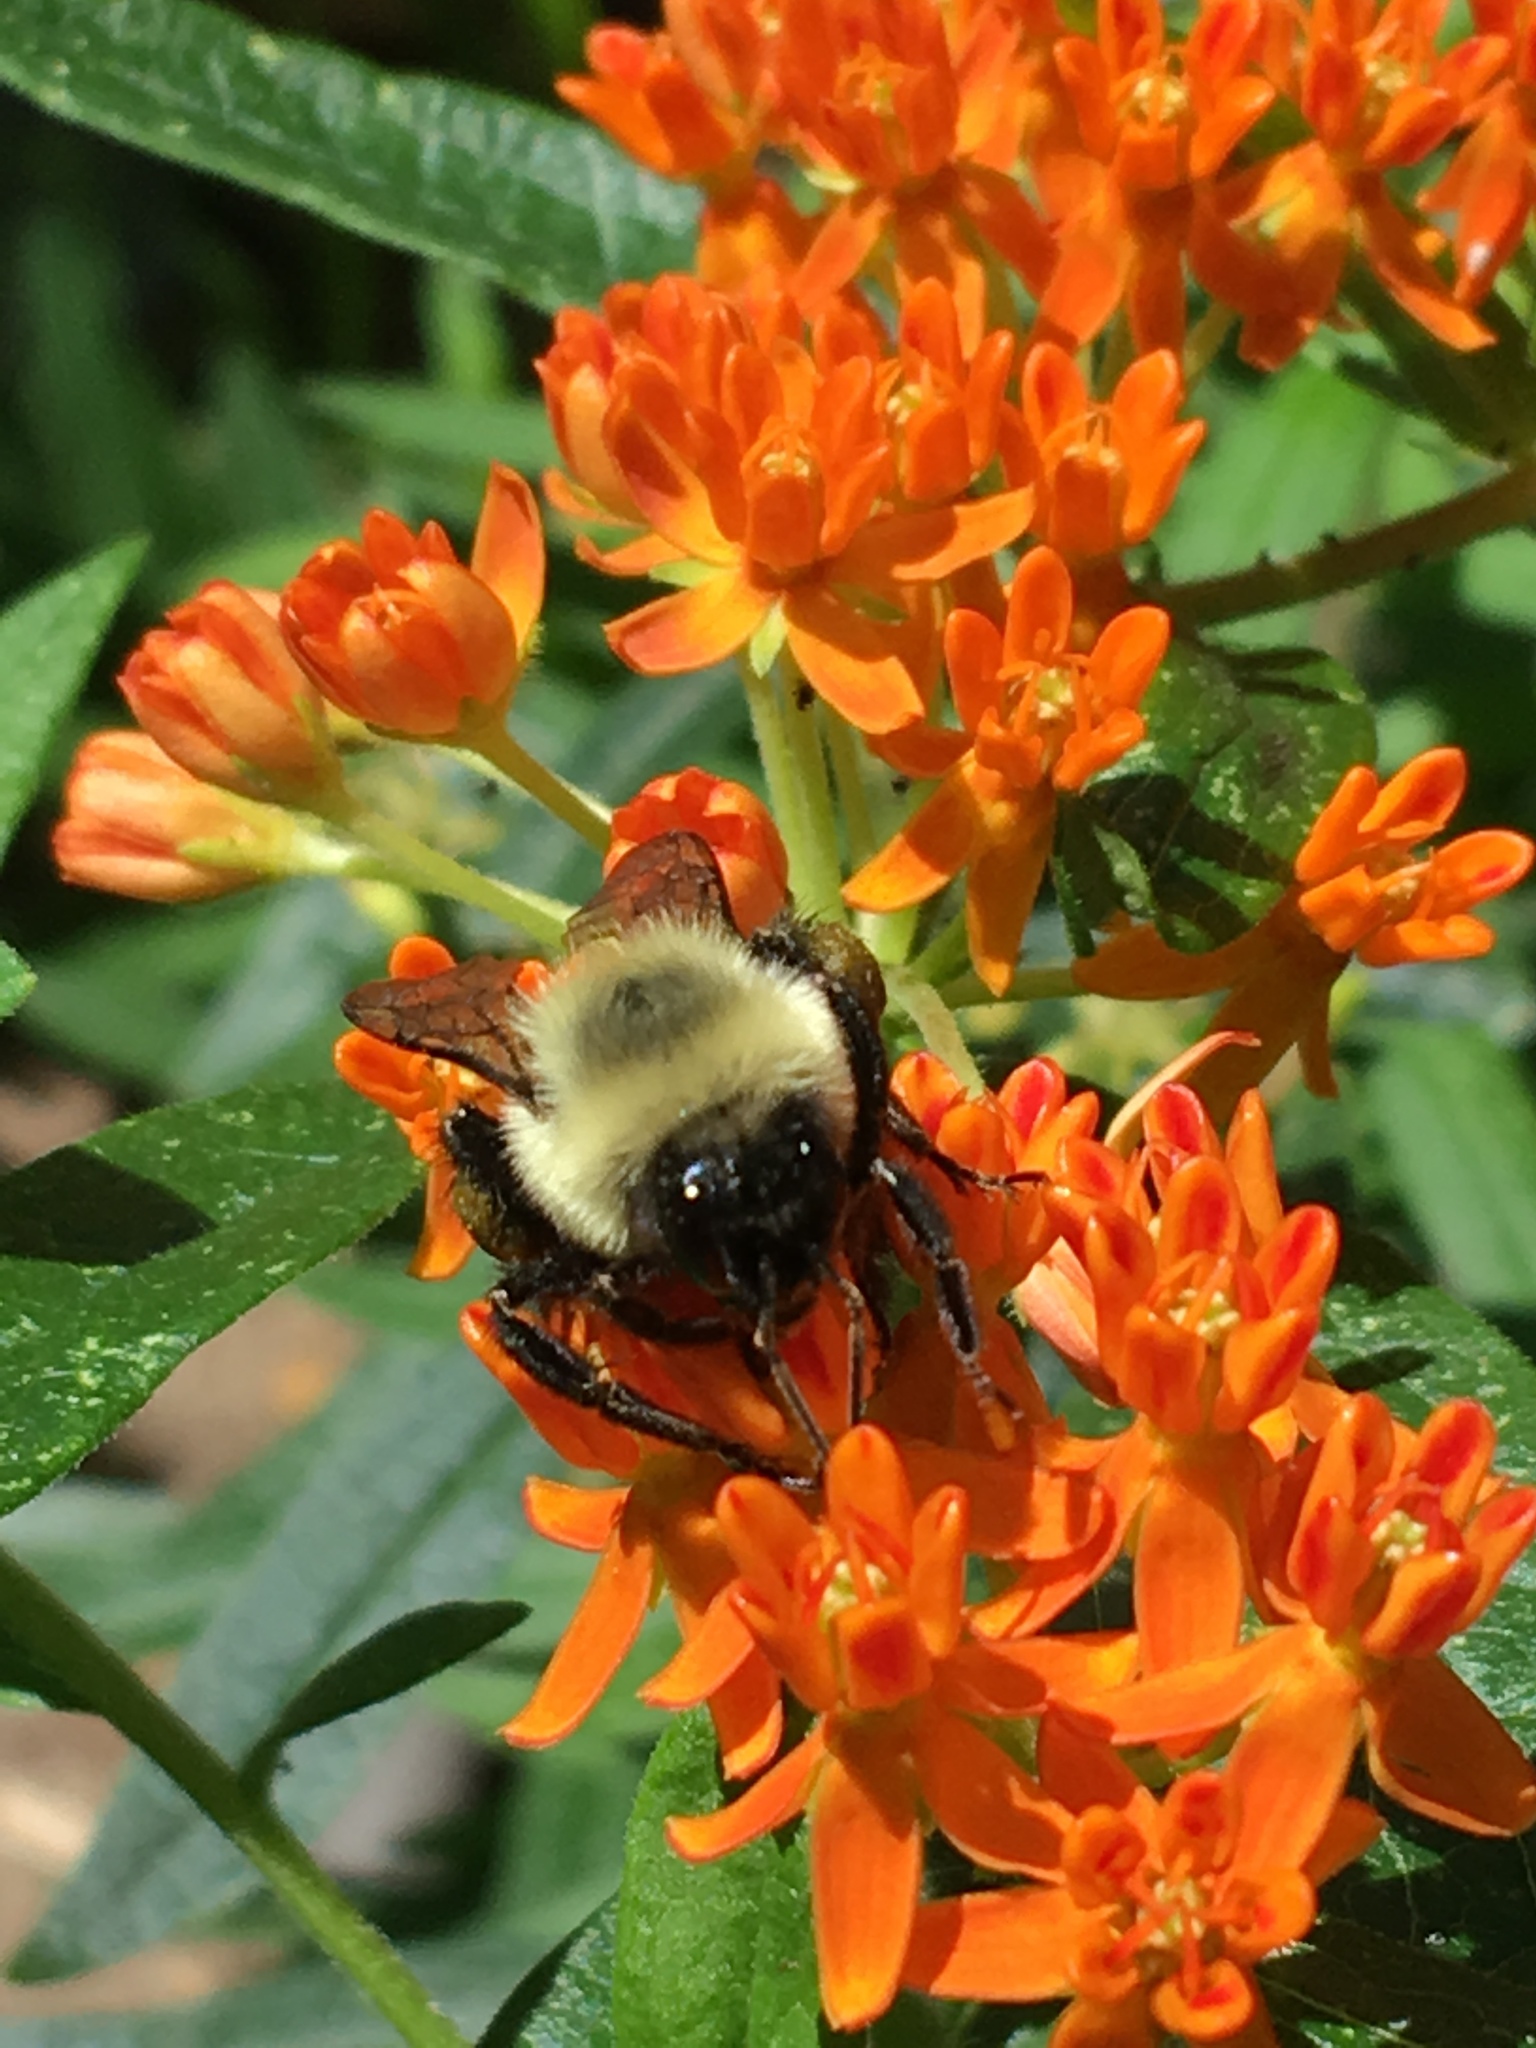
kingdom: Animalia
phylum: Arthropoda
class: Insecta
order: Hymenoptera
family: Apidae
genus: Bombus
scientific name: Bombus impatiens
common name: Common eastern bumble bee
